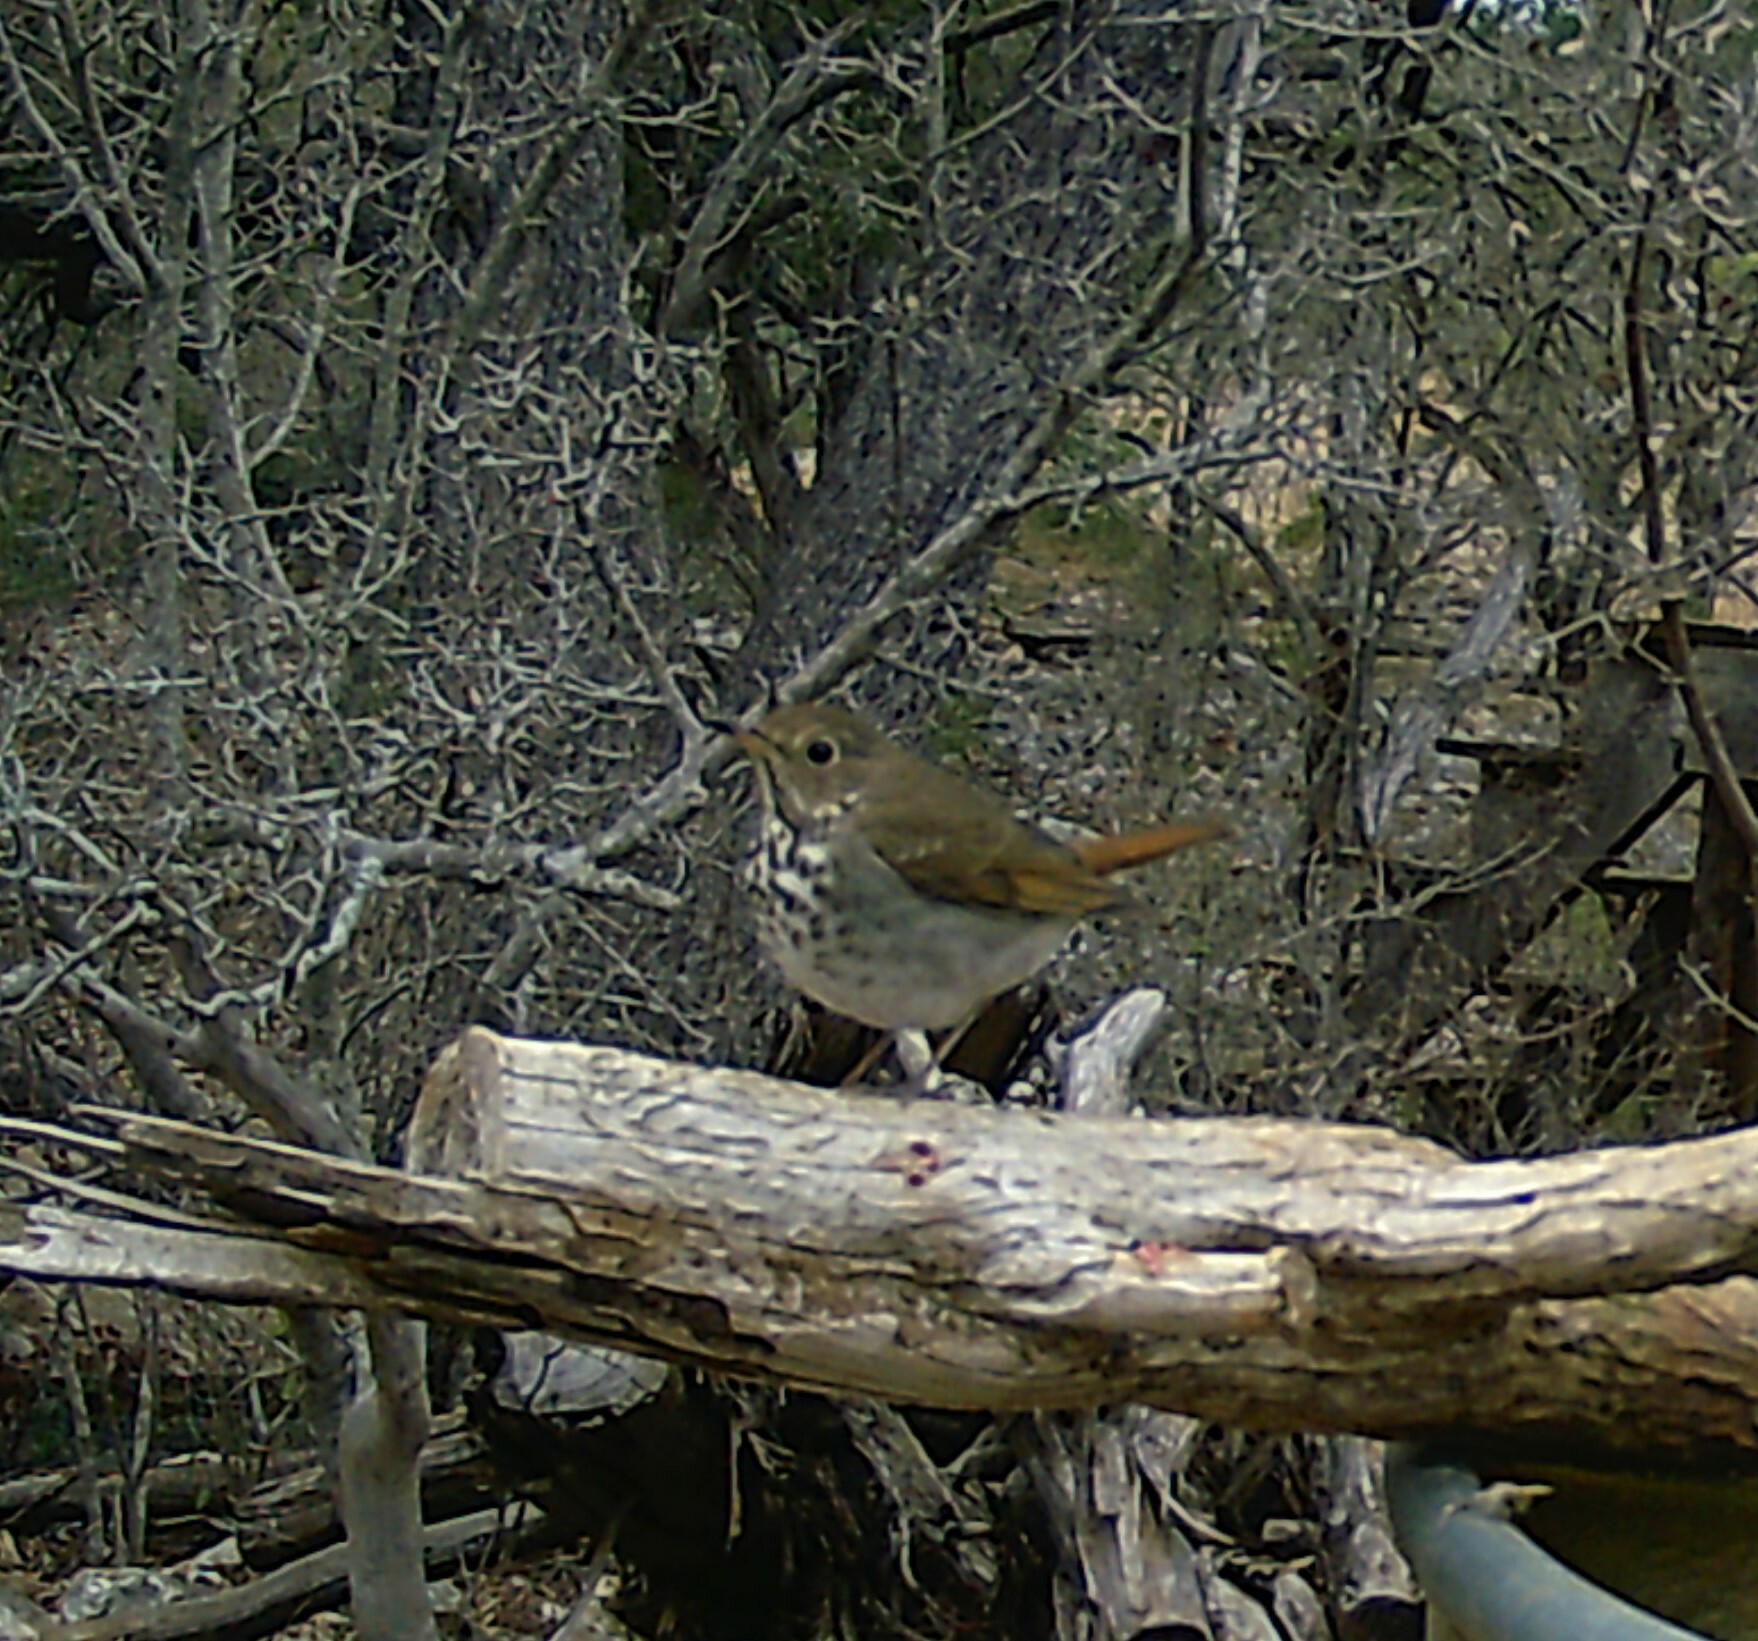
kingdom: Animalia
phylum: Chordata
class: Aves
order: Passeriformes
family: Turdidae
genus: Catharus
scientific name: Catharus guttatus
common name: Hermit thrush
